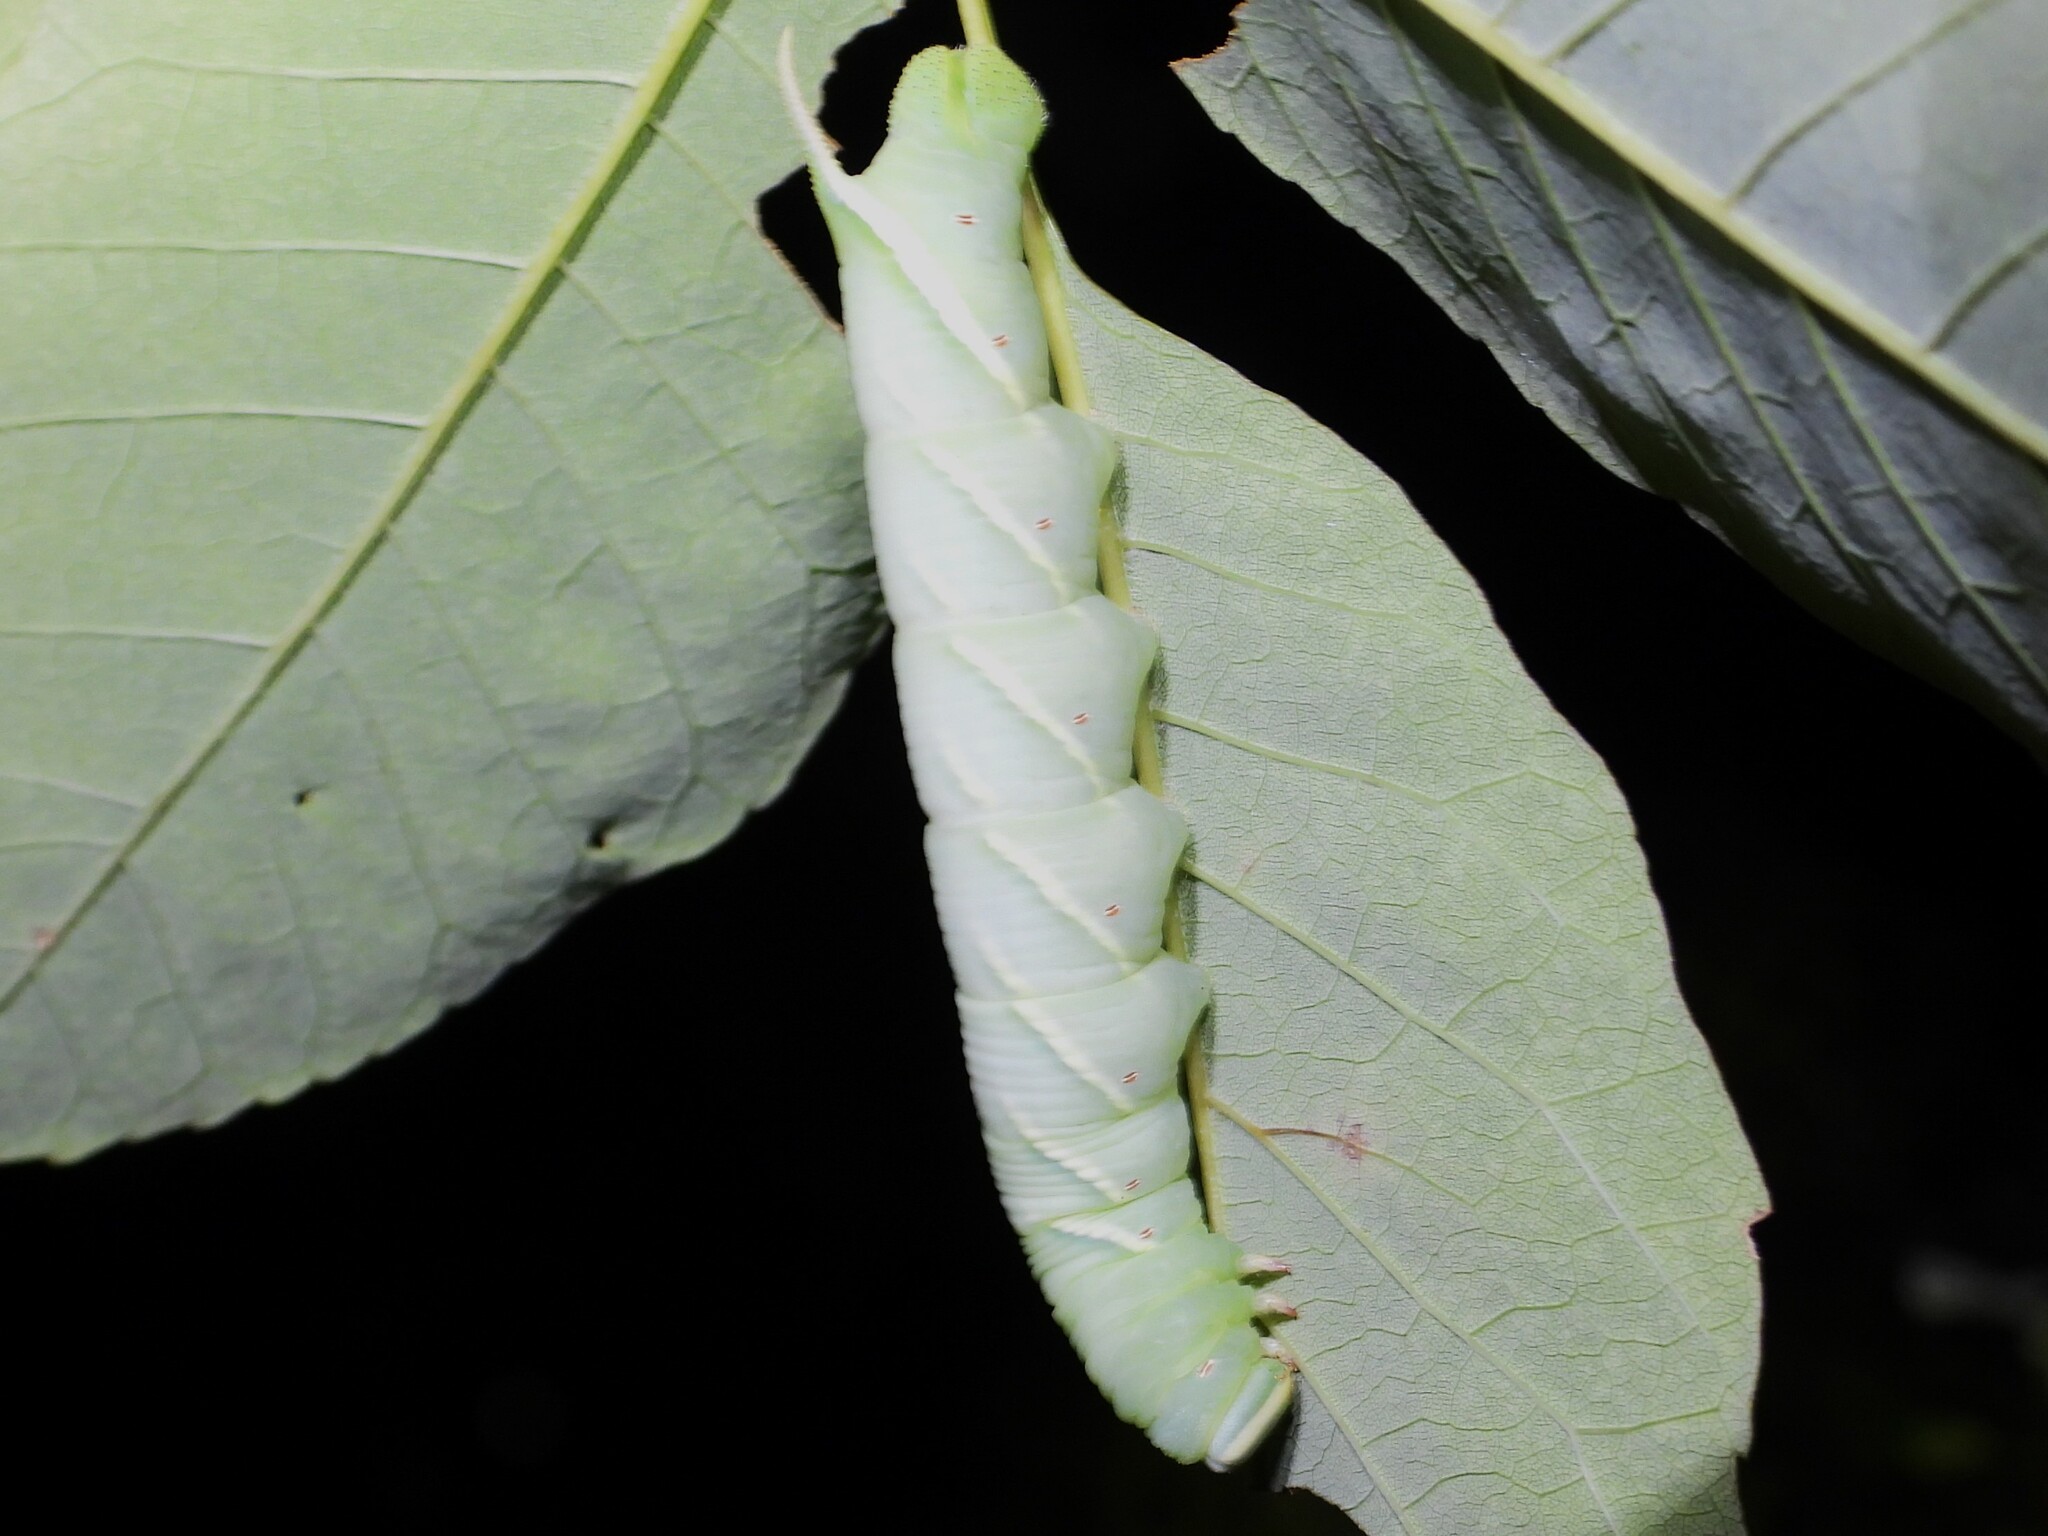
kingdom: Animalia
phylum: Arthropoda
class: Insecta
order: Lepidoptera
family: Sphingidae
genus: Ceratomia
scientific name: Ceratomia undulosa
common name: Waved sphinx
